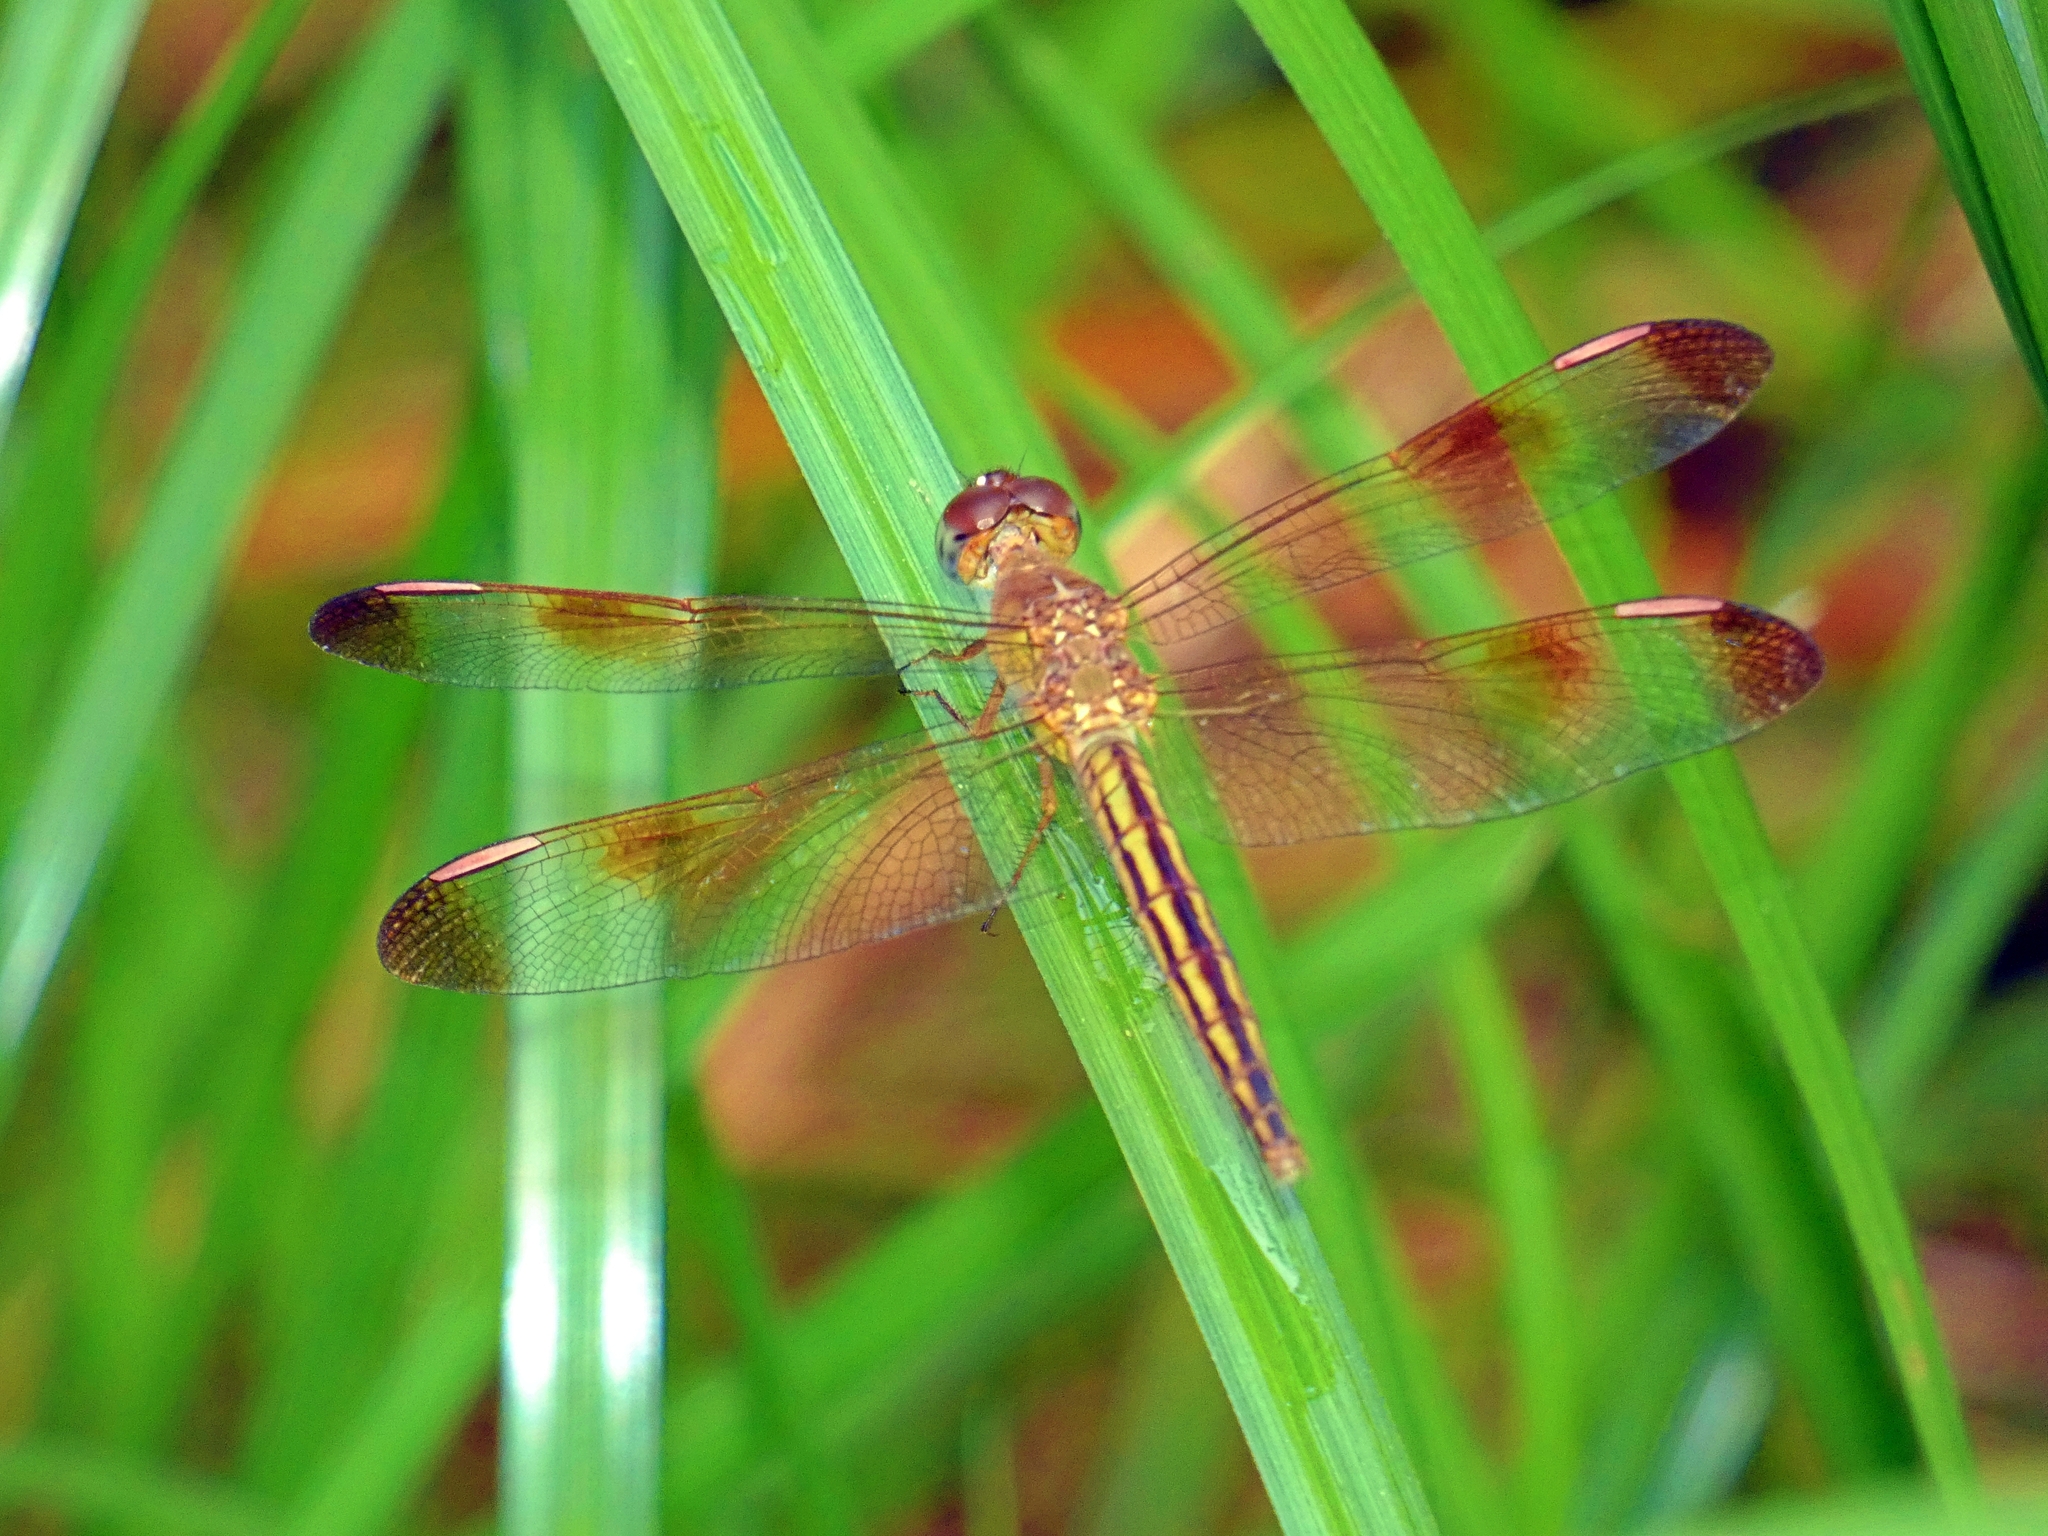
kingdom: Animalia
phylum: Arthropoda
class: Insecta
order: Odonata
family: Libellulidae
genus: Neurothemis
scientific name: Neurothemis stigmatizans
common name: Painted grasshawk
